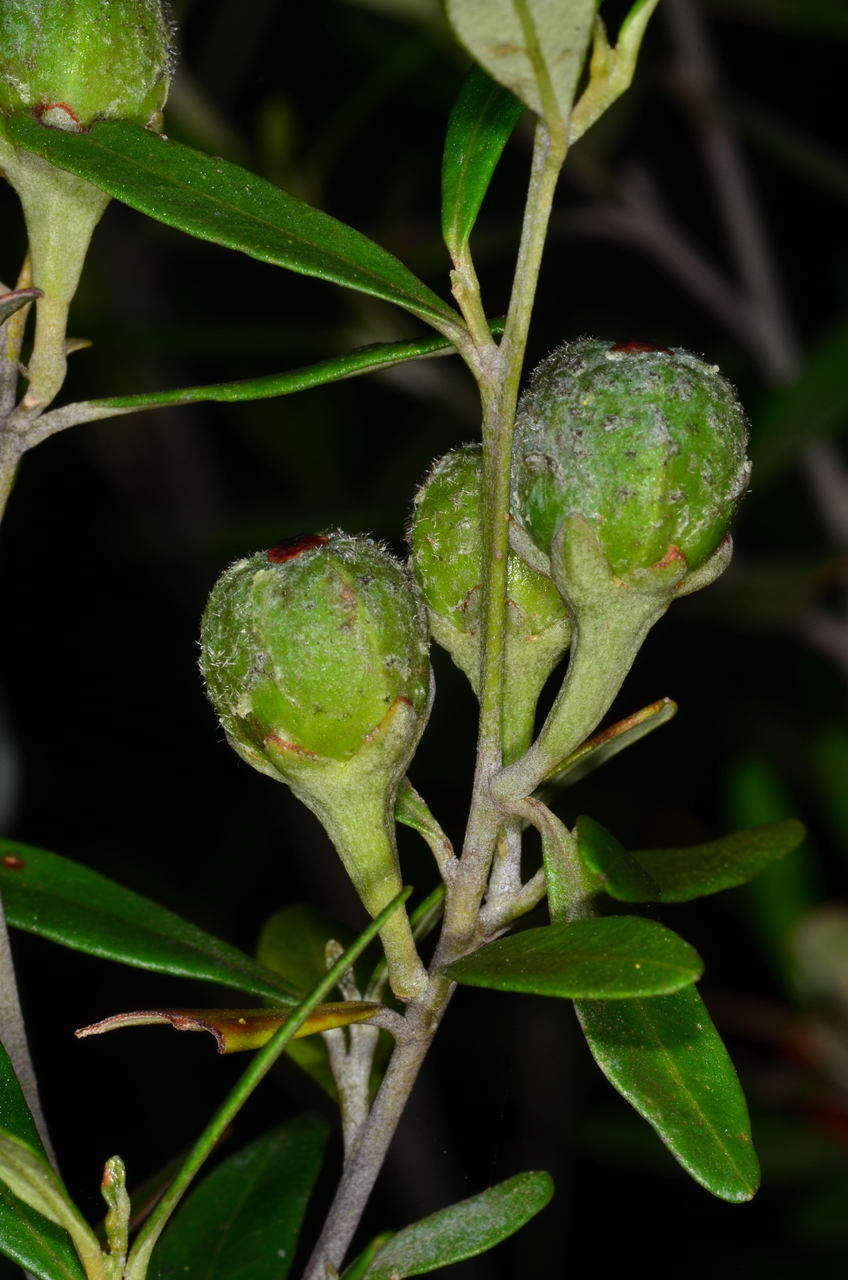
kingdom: Plantae
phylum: Tracheophyta
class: Magnoliopsida
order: Malpighiales
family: Euphorbiaceae
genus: Beyeria
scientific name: Beyeria viscosa
